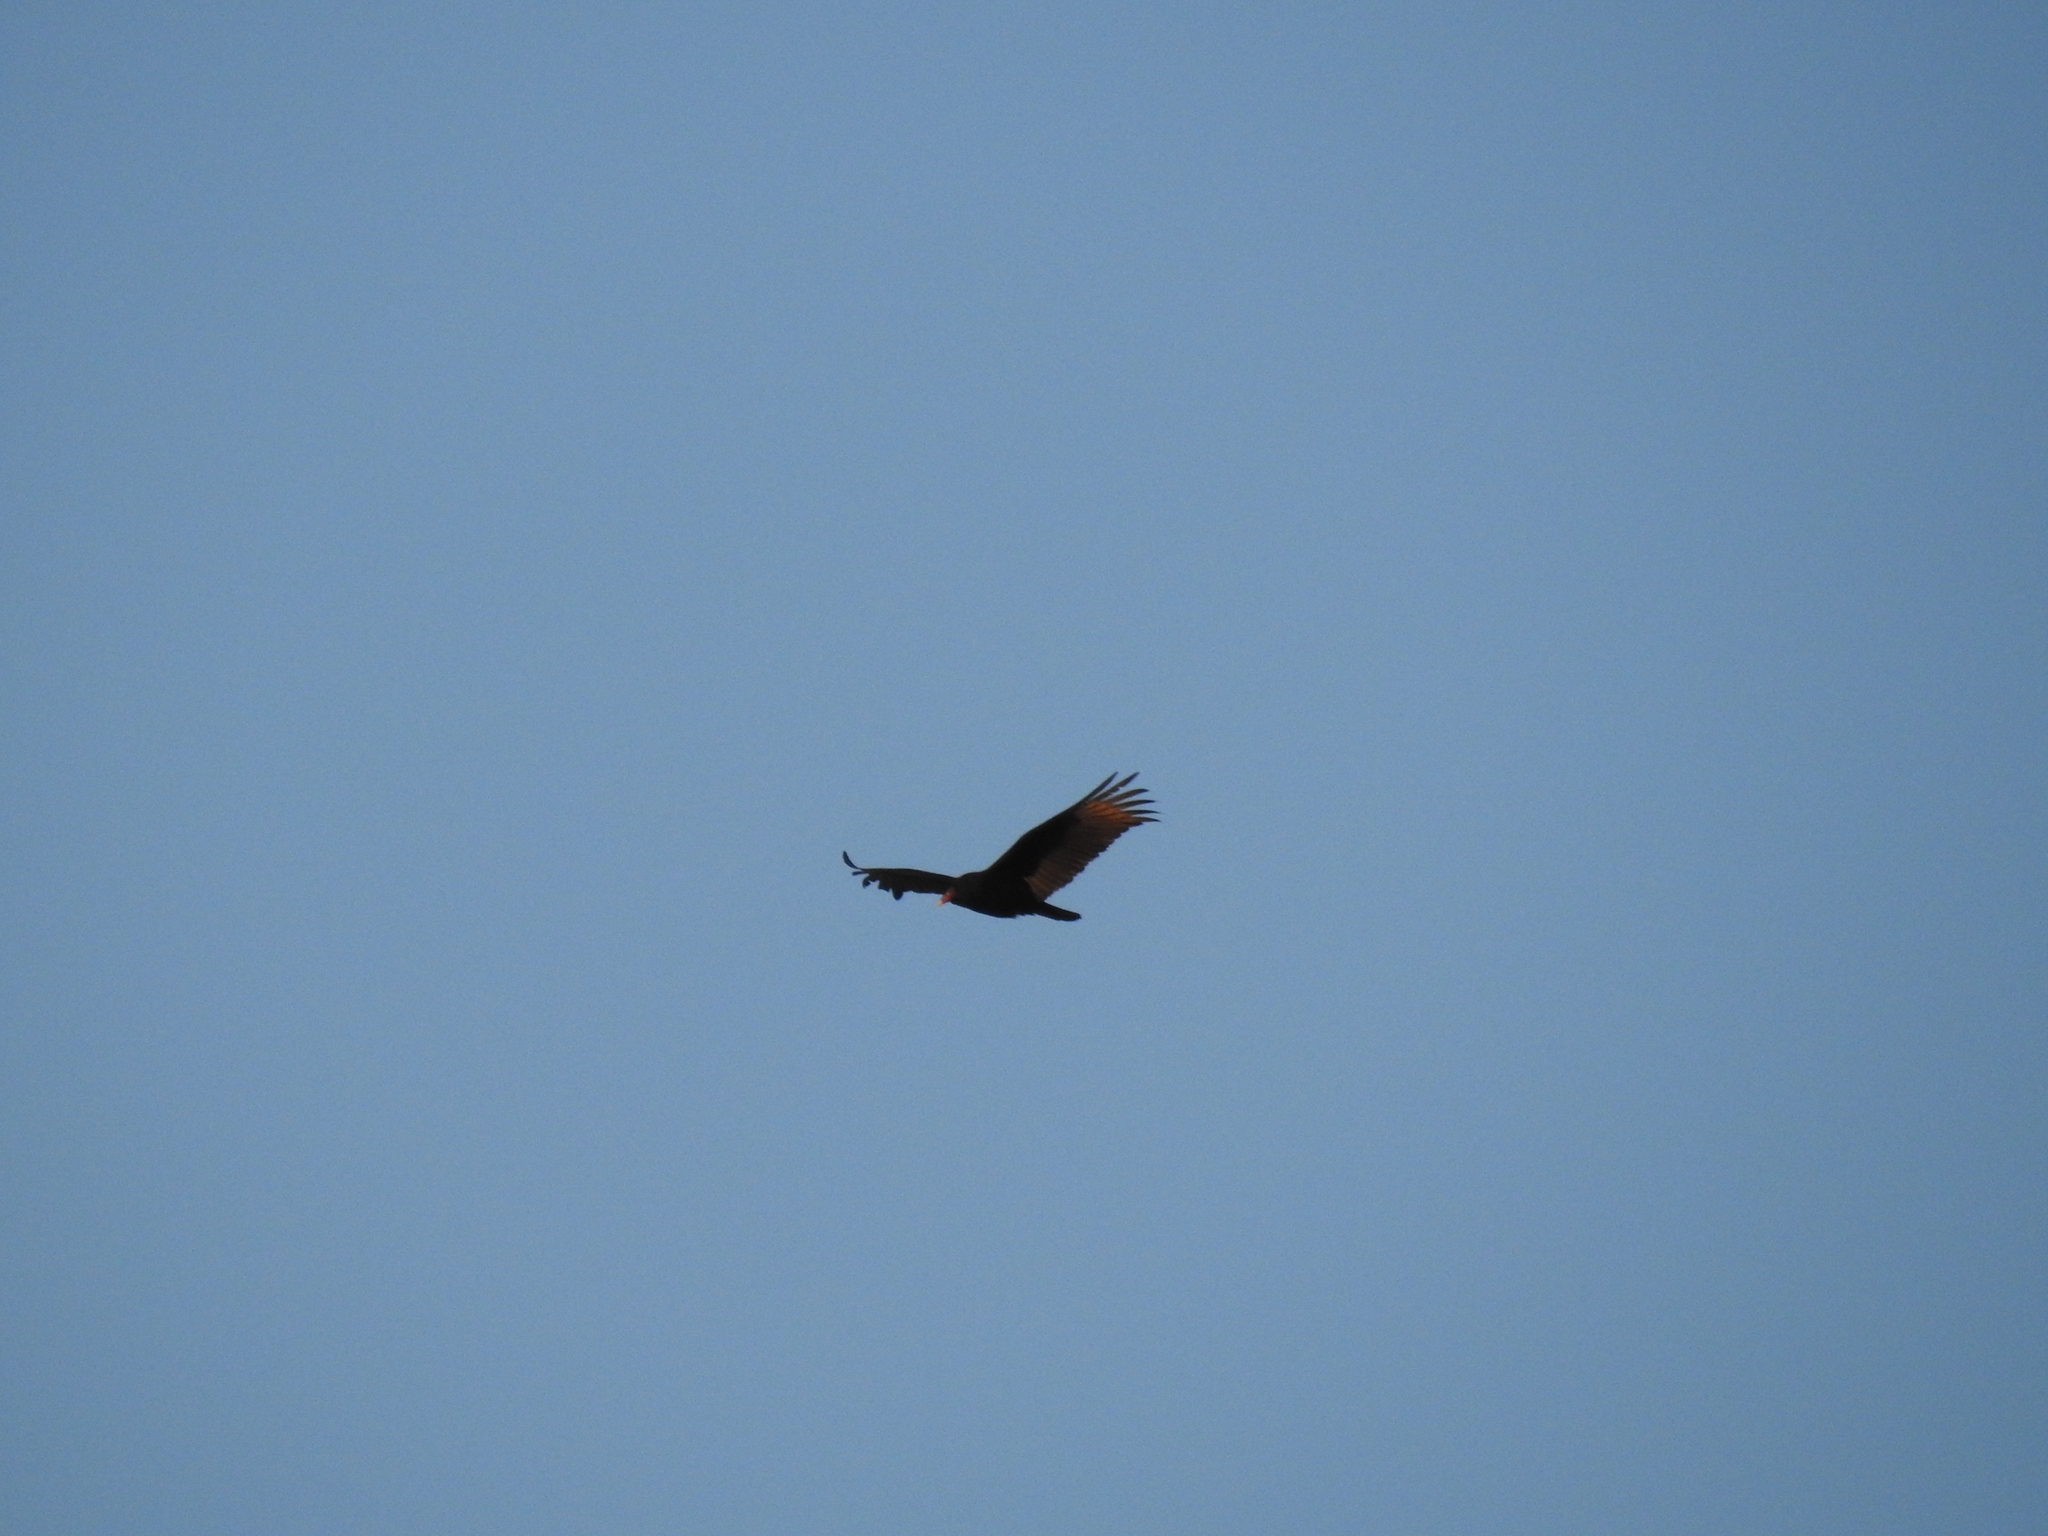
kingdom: Animalia
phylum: Chordata
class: Aves
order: Accipitriformes
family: Cathartidae
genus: Cathartes
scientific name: Cathartes aura
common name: Turkey vulture
